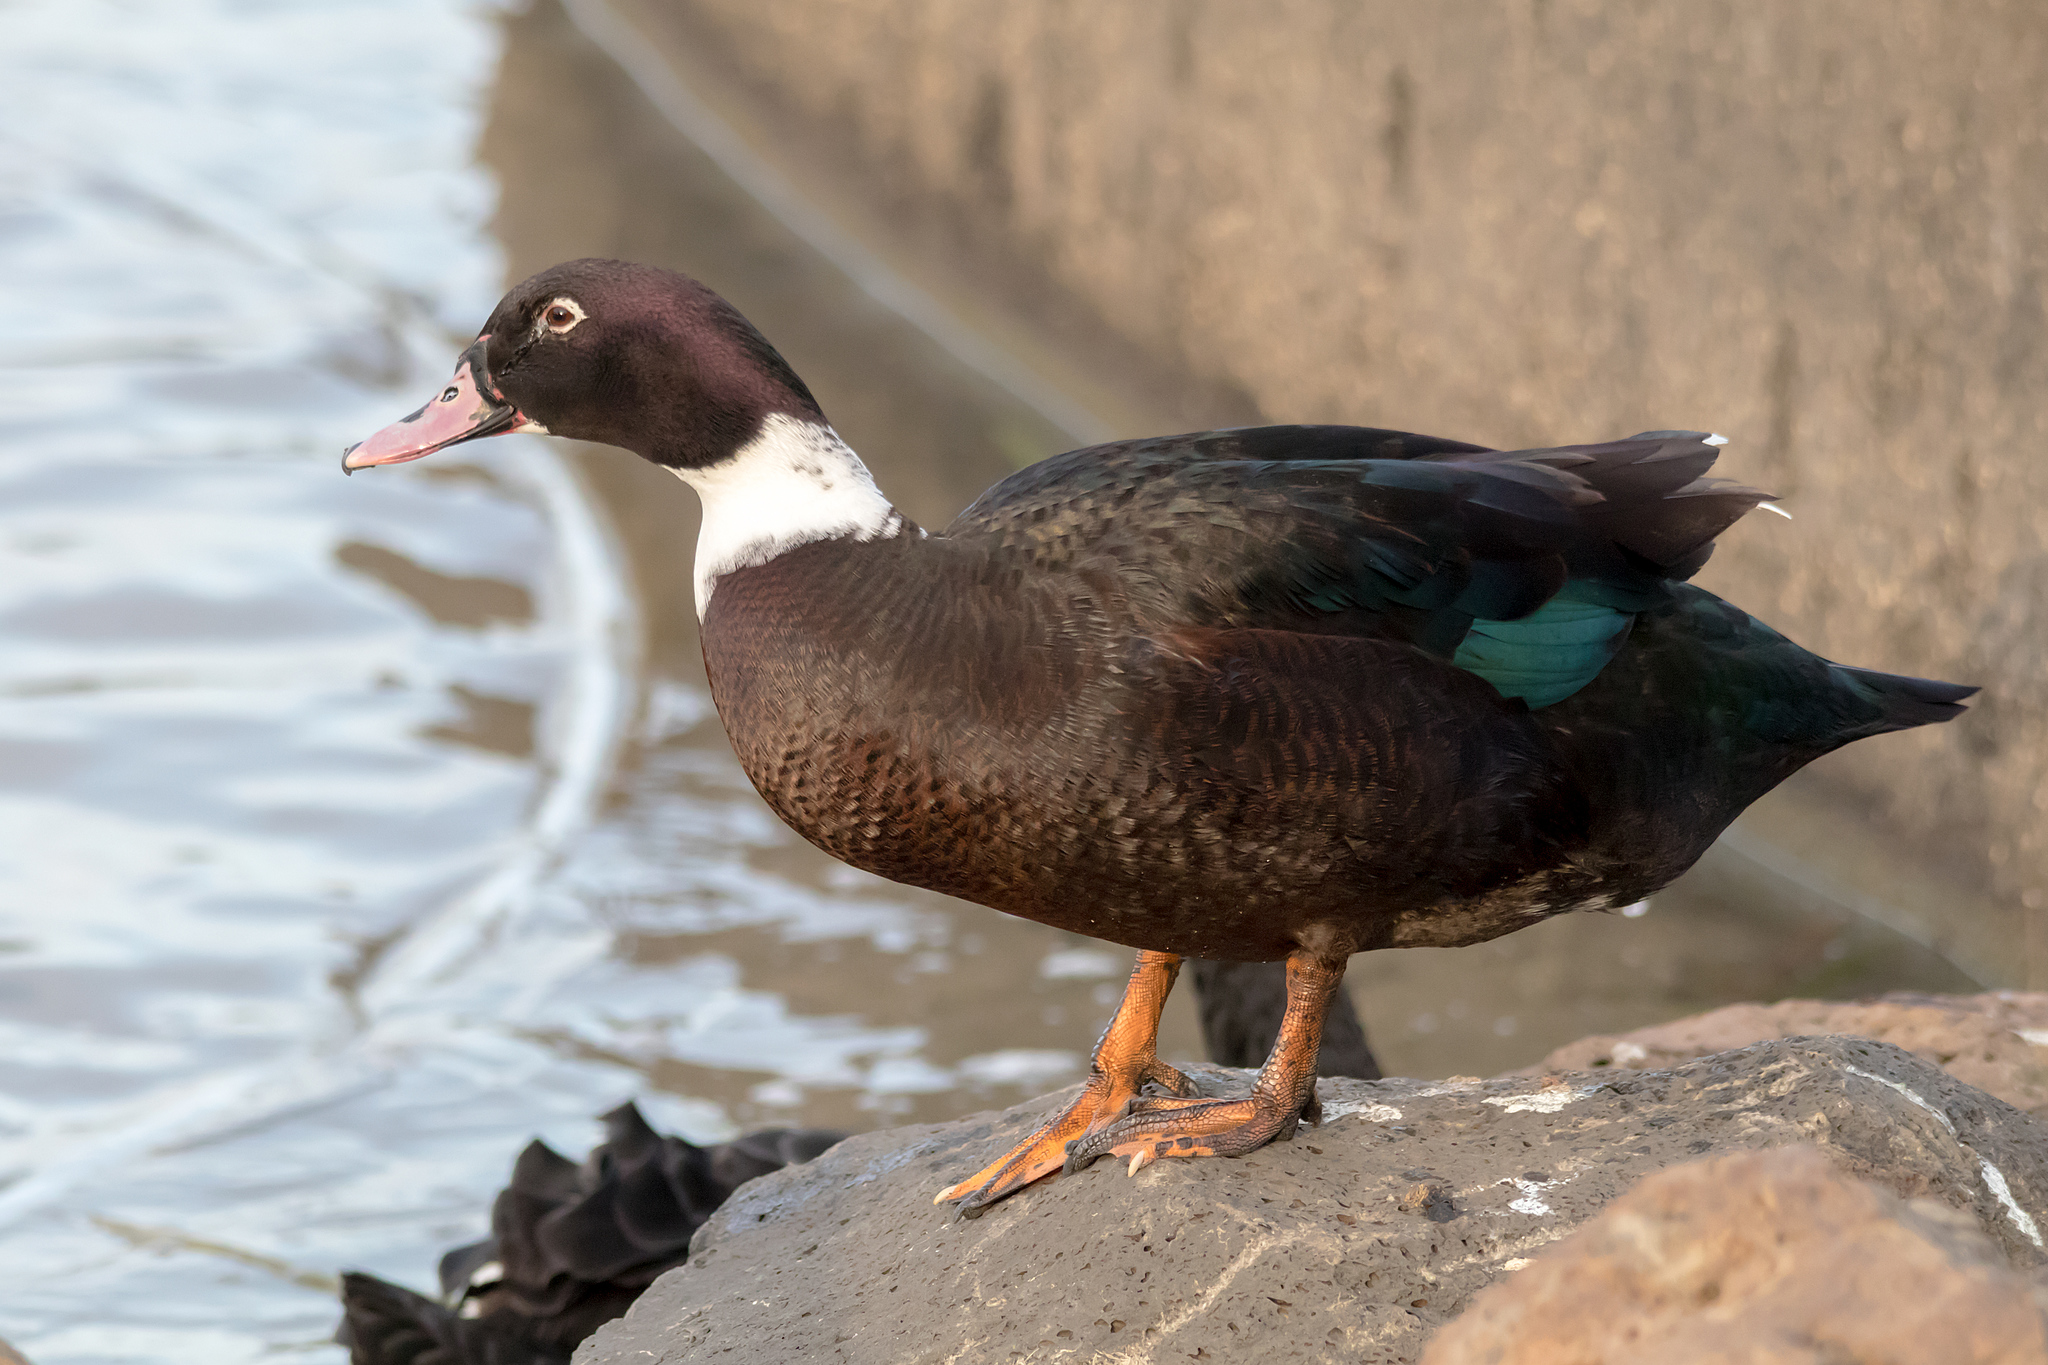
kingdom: Animalia
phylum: Chordata
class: Aves
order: Anseriformes
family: Anatidae
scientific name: Anatidae
